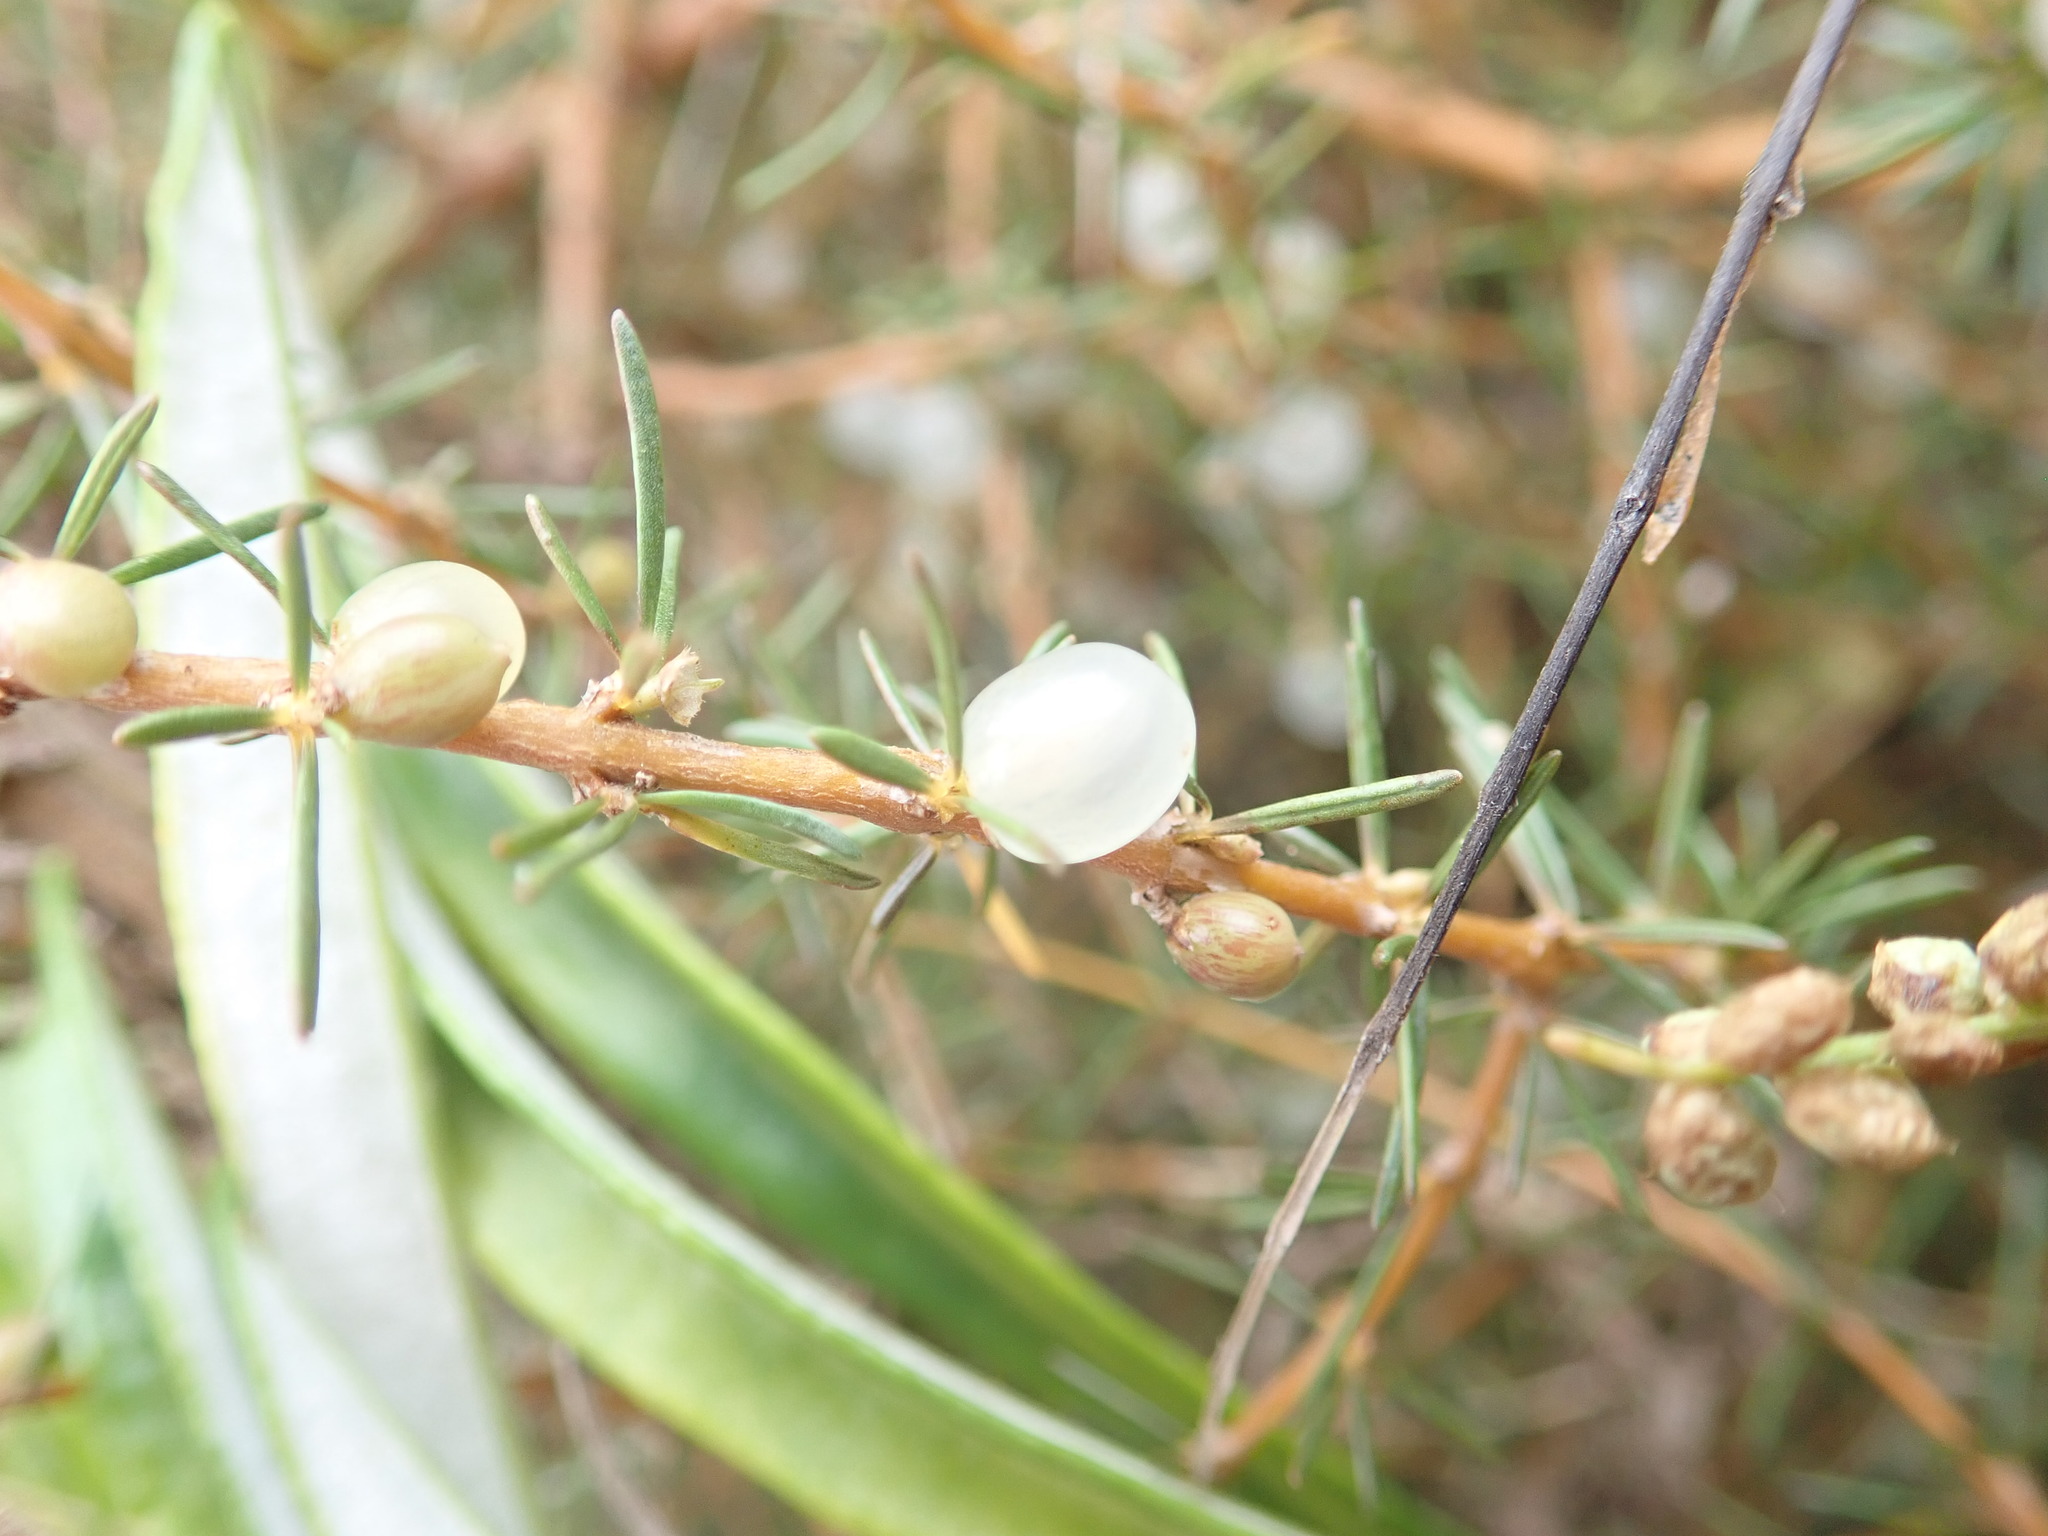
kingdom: Plantae
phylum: Tracheophyta
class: Magnoliopsida
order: Gentianales
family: Rubiaceae
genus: Coprosma
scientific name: Coprosma acerosa
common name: Sand coprosma
